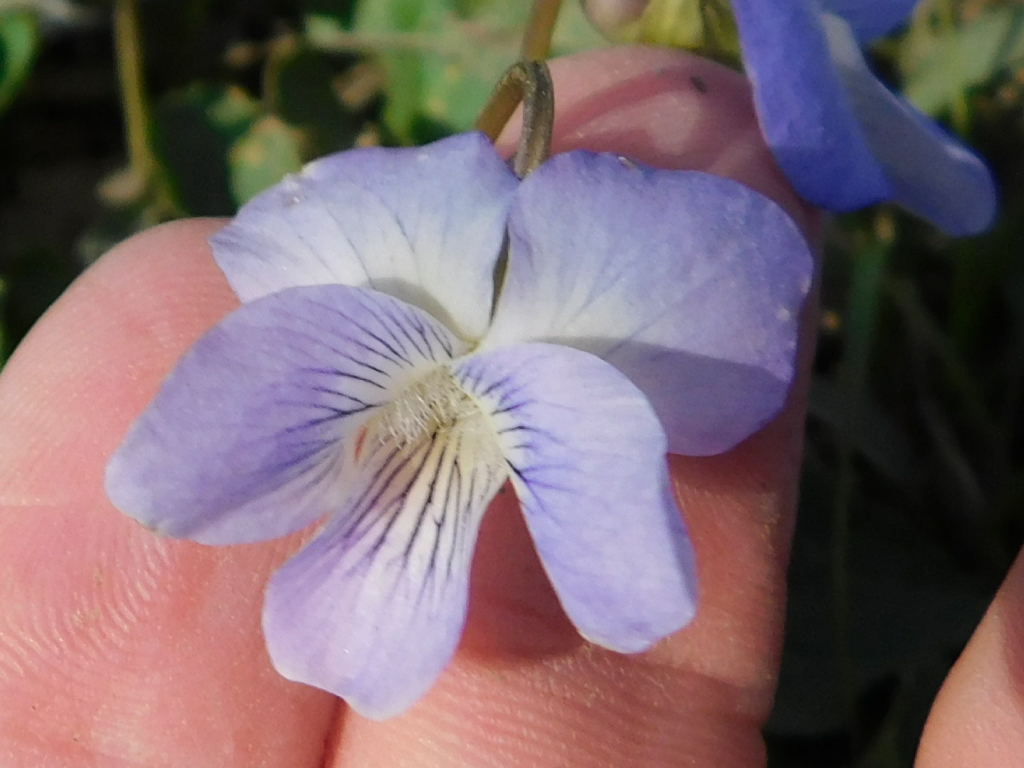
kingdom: Plantae
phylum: Tracheophyta
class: Magnoliopsida
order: Malpighiales
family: Violaceae
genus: Viola
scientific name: Viola sororia
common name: Dooryard violet
